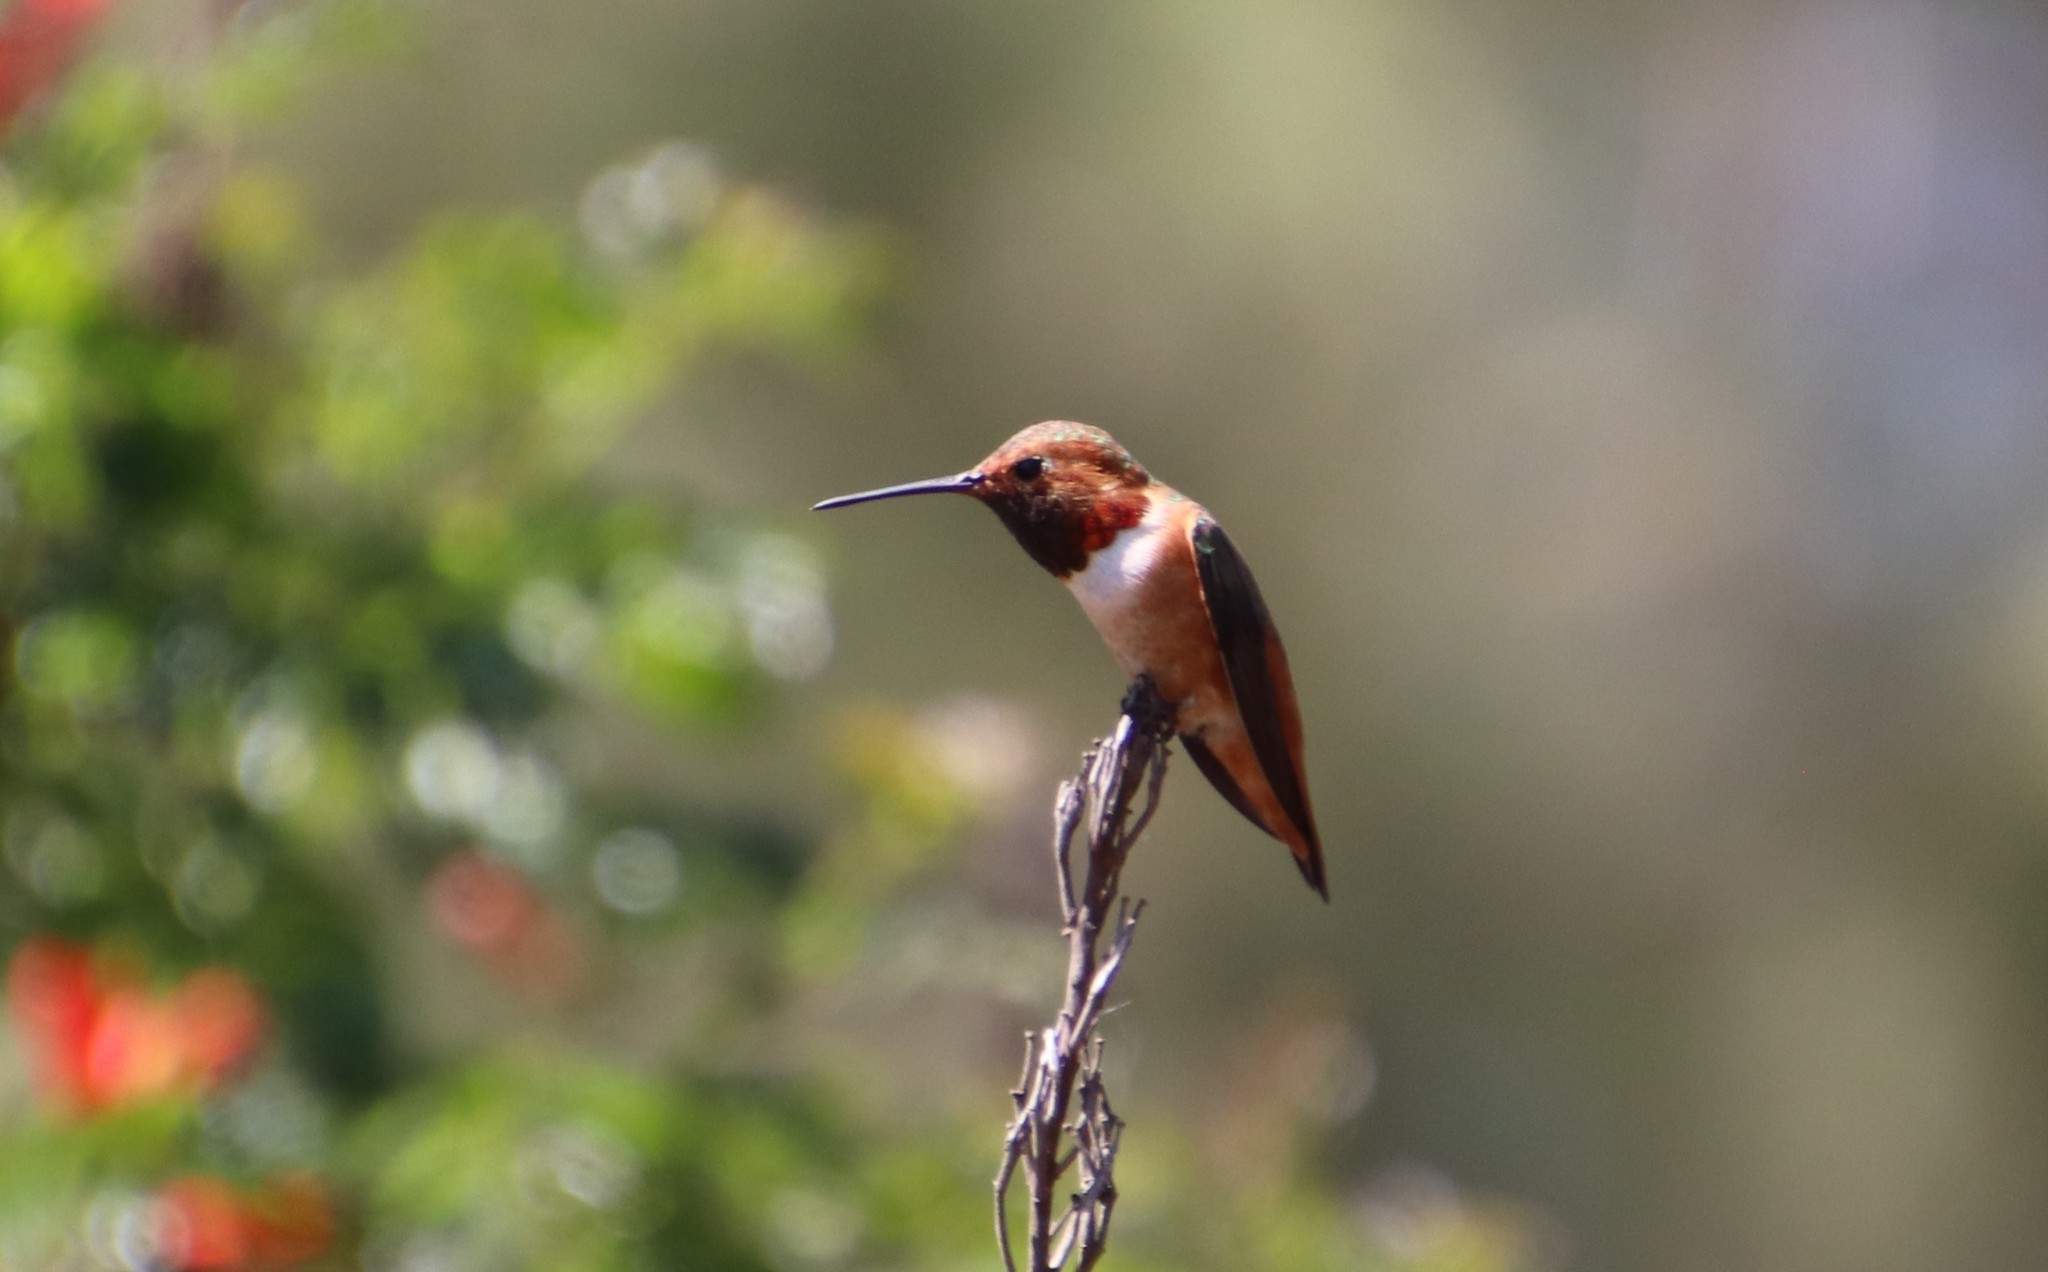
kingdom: Animalia
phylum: Chordata
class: Aves
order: Apodiformes
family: Trochilidae
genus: Selasphorus
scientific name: Selasphorus
